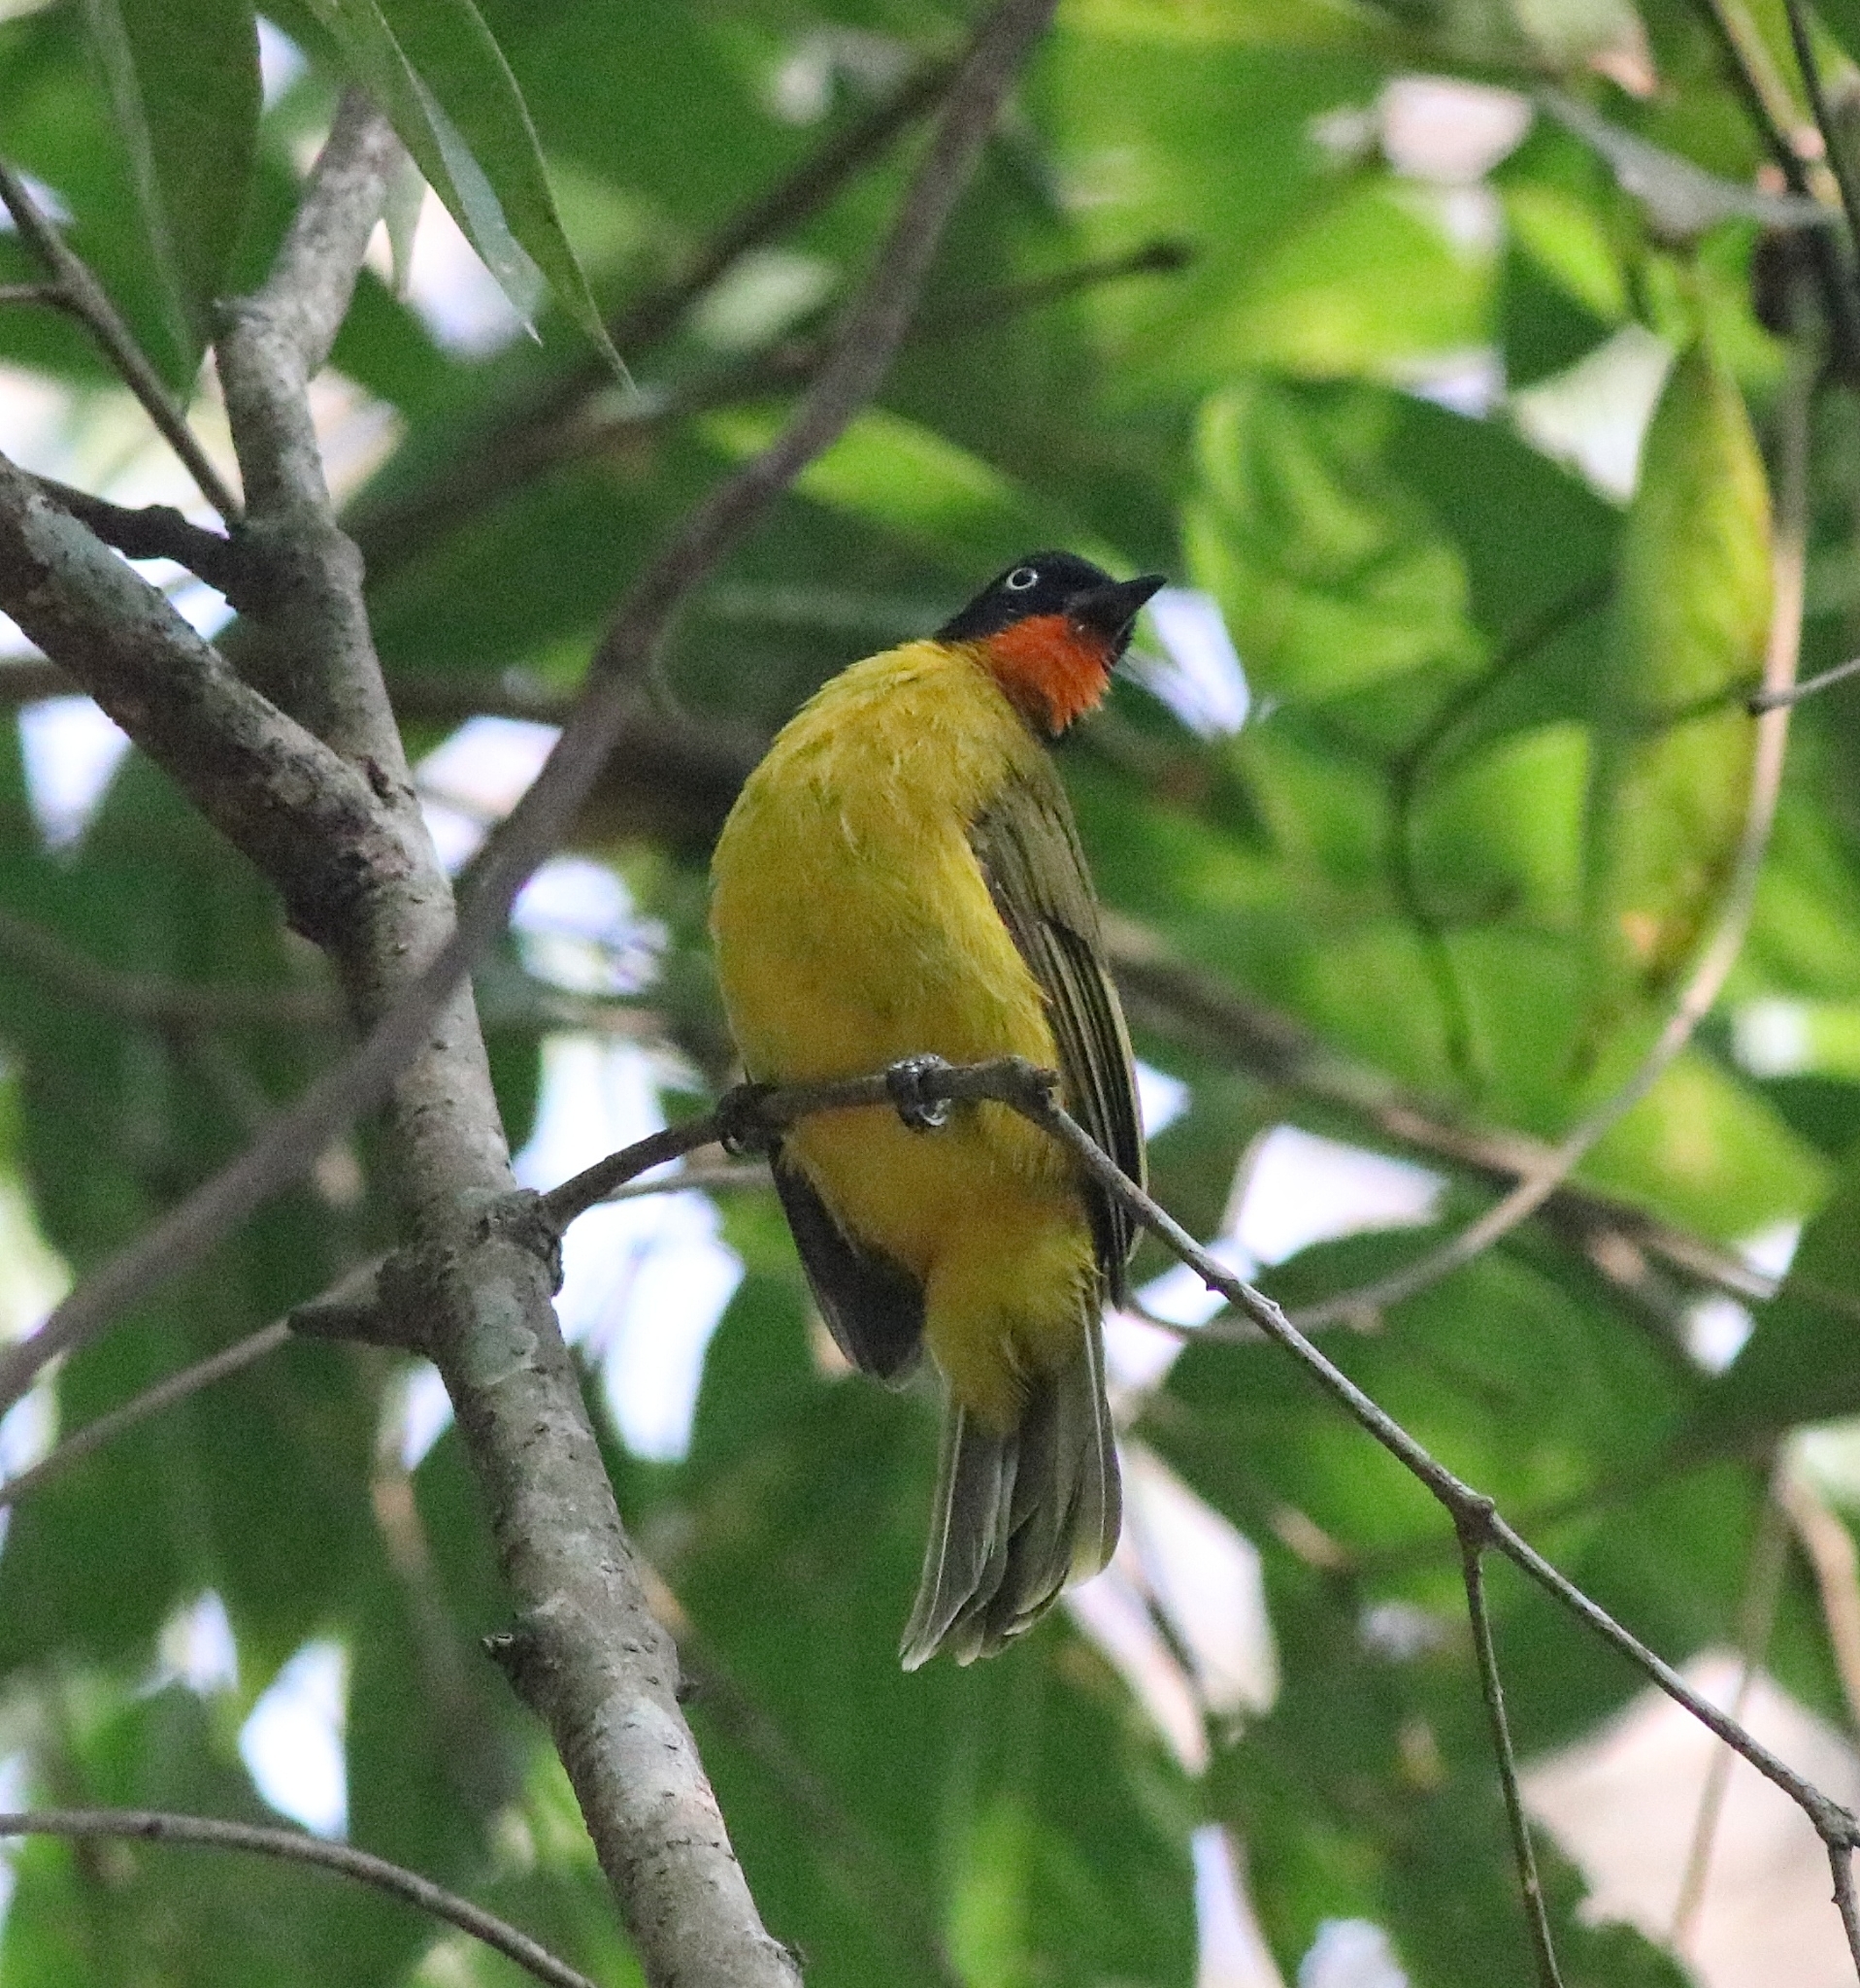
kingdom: Animalia
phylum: Chordata
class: Aves
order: Passeriformes
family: Pycnonotidae
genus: Pycnonotus
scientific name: Pycnonotus gularis
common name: Flame-throated bulbul
